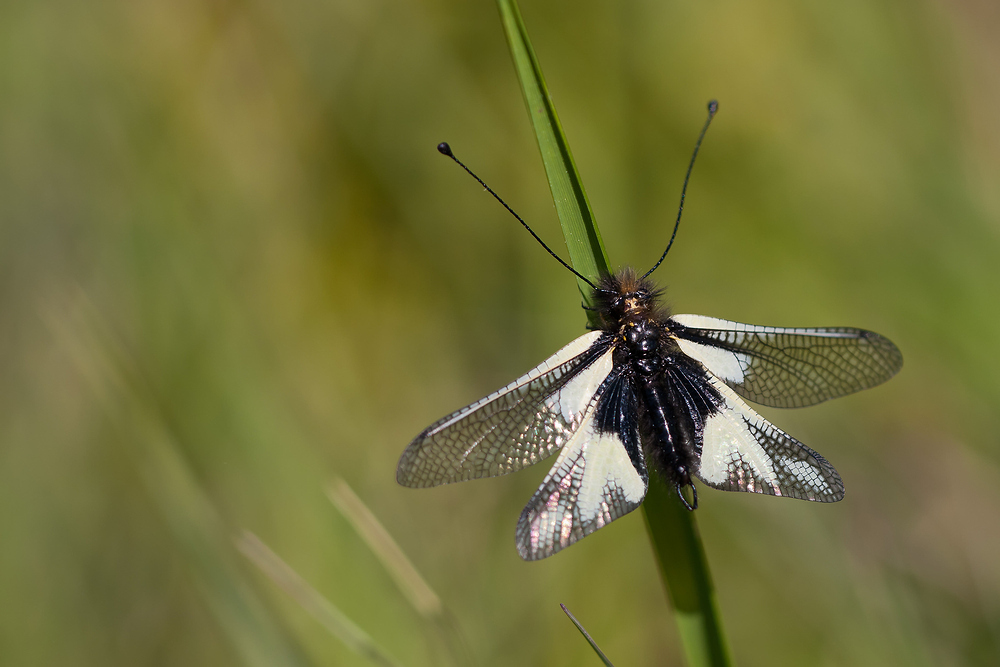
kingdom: Animalia
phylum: Arthropoda
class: Insecta
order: Neuroptera
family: Ascalaphidae
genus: Libelloides
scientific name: Libelloides coccajus
